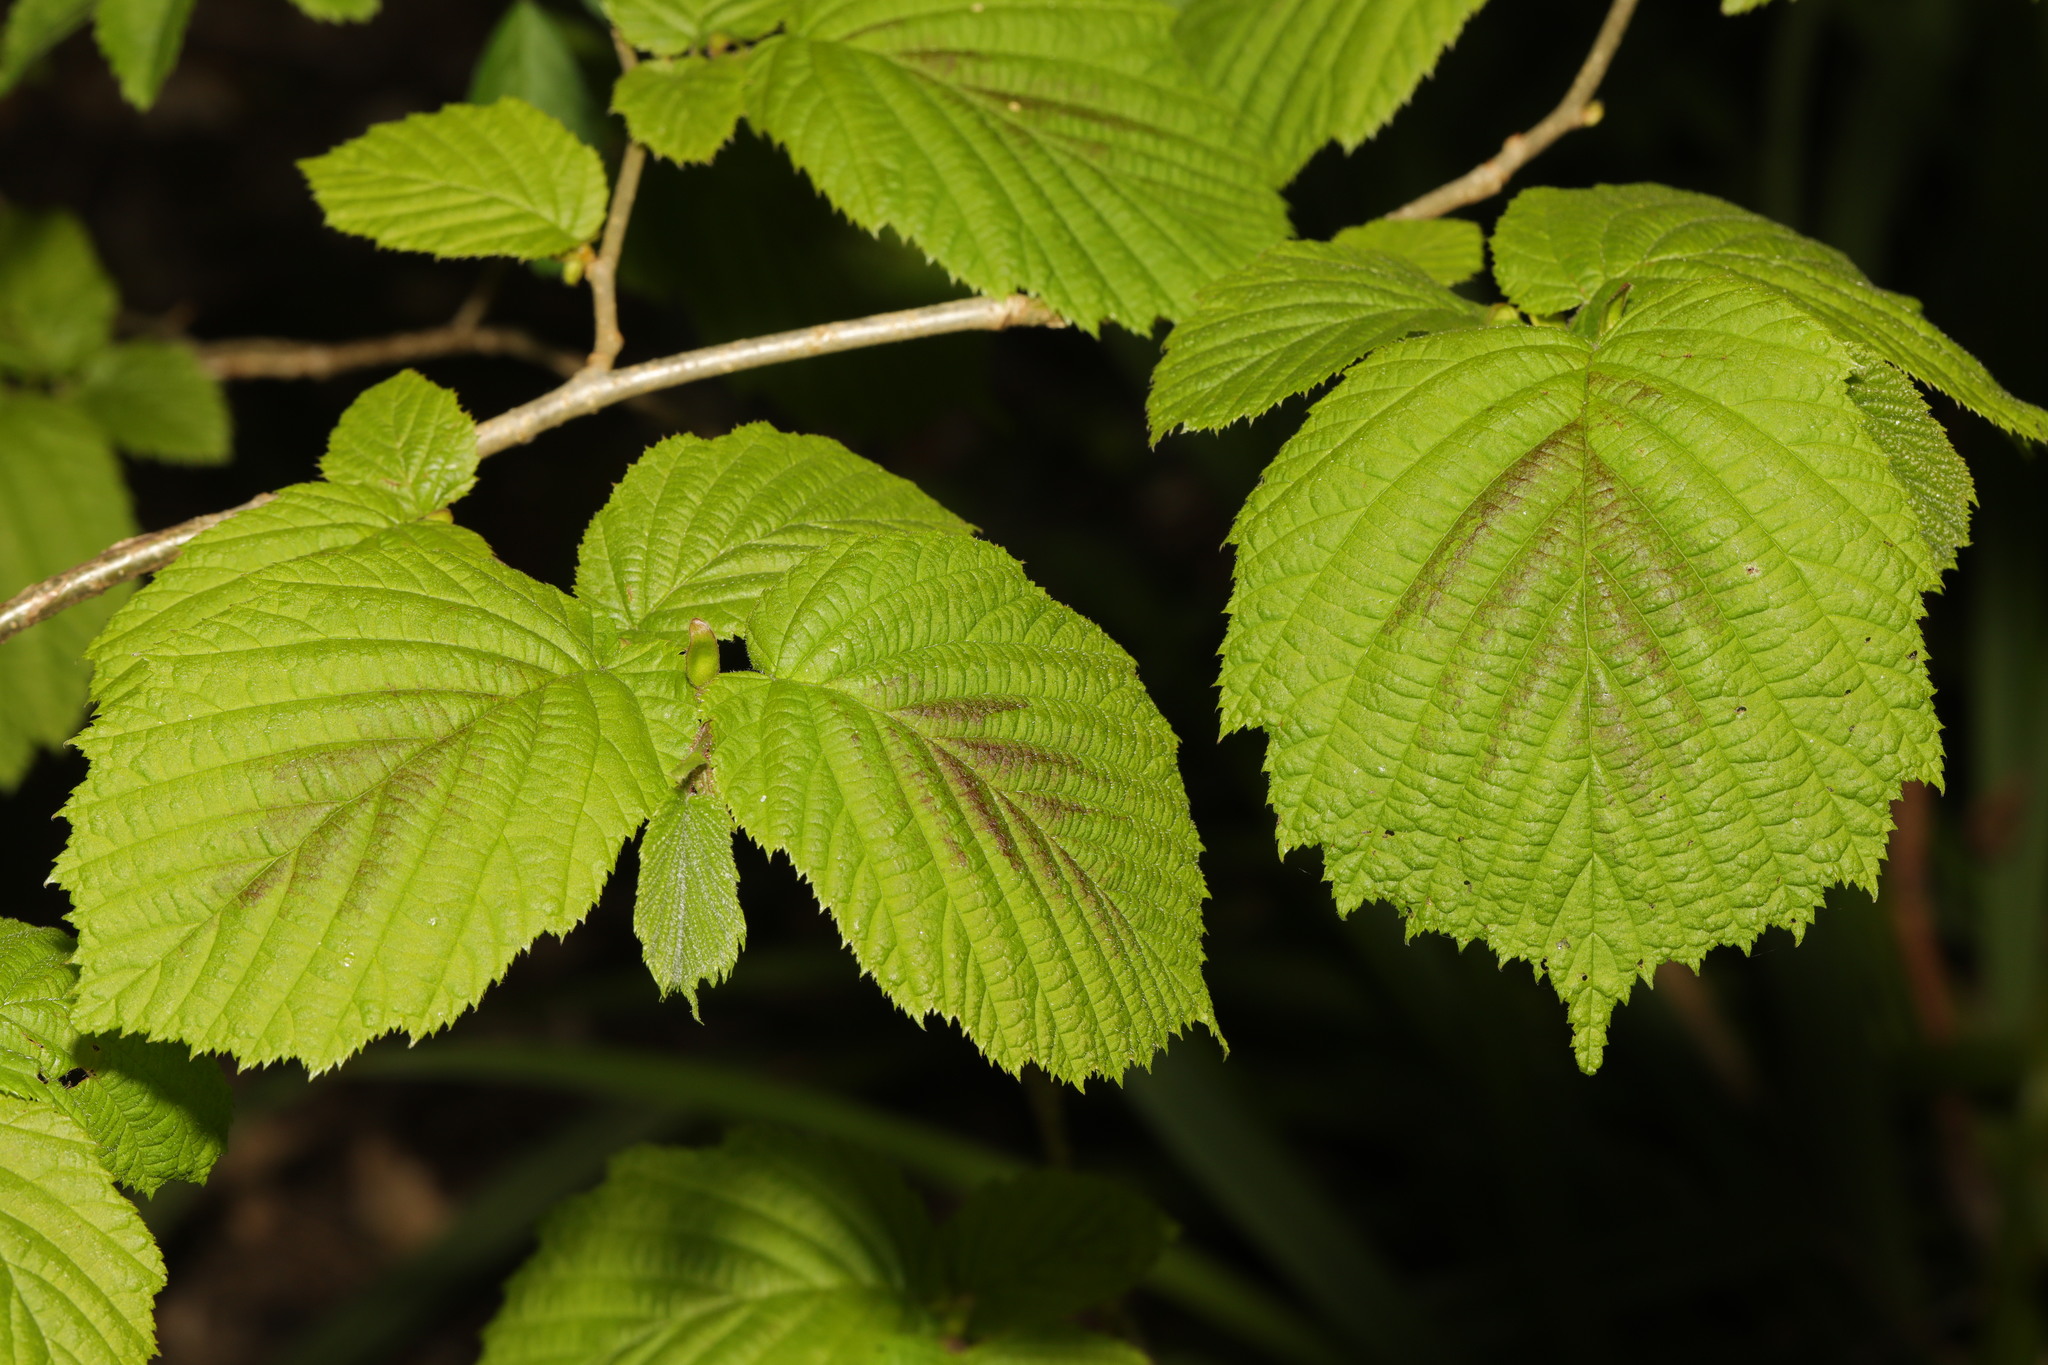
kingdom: Plantae
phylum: Tracheophyta
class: Magnoliopsida
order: Fagales
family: Betulaceae
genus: Corylus
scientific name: Corylus avellana
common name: European hazel
